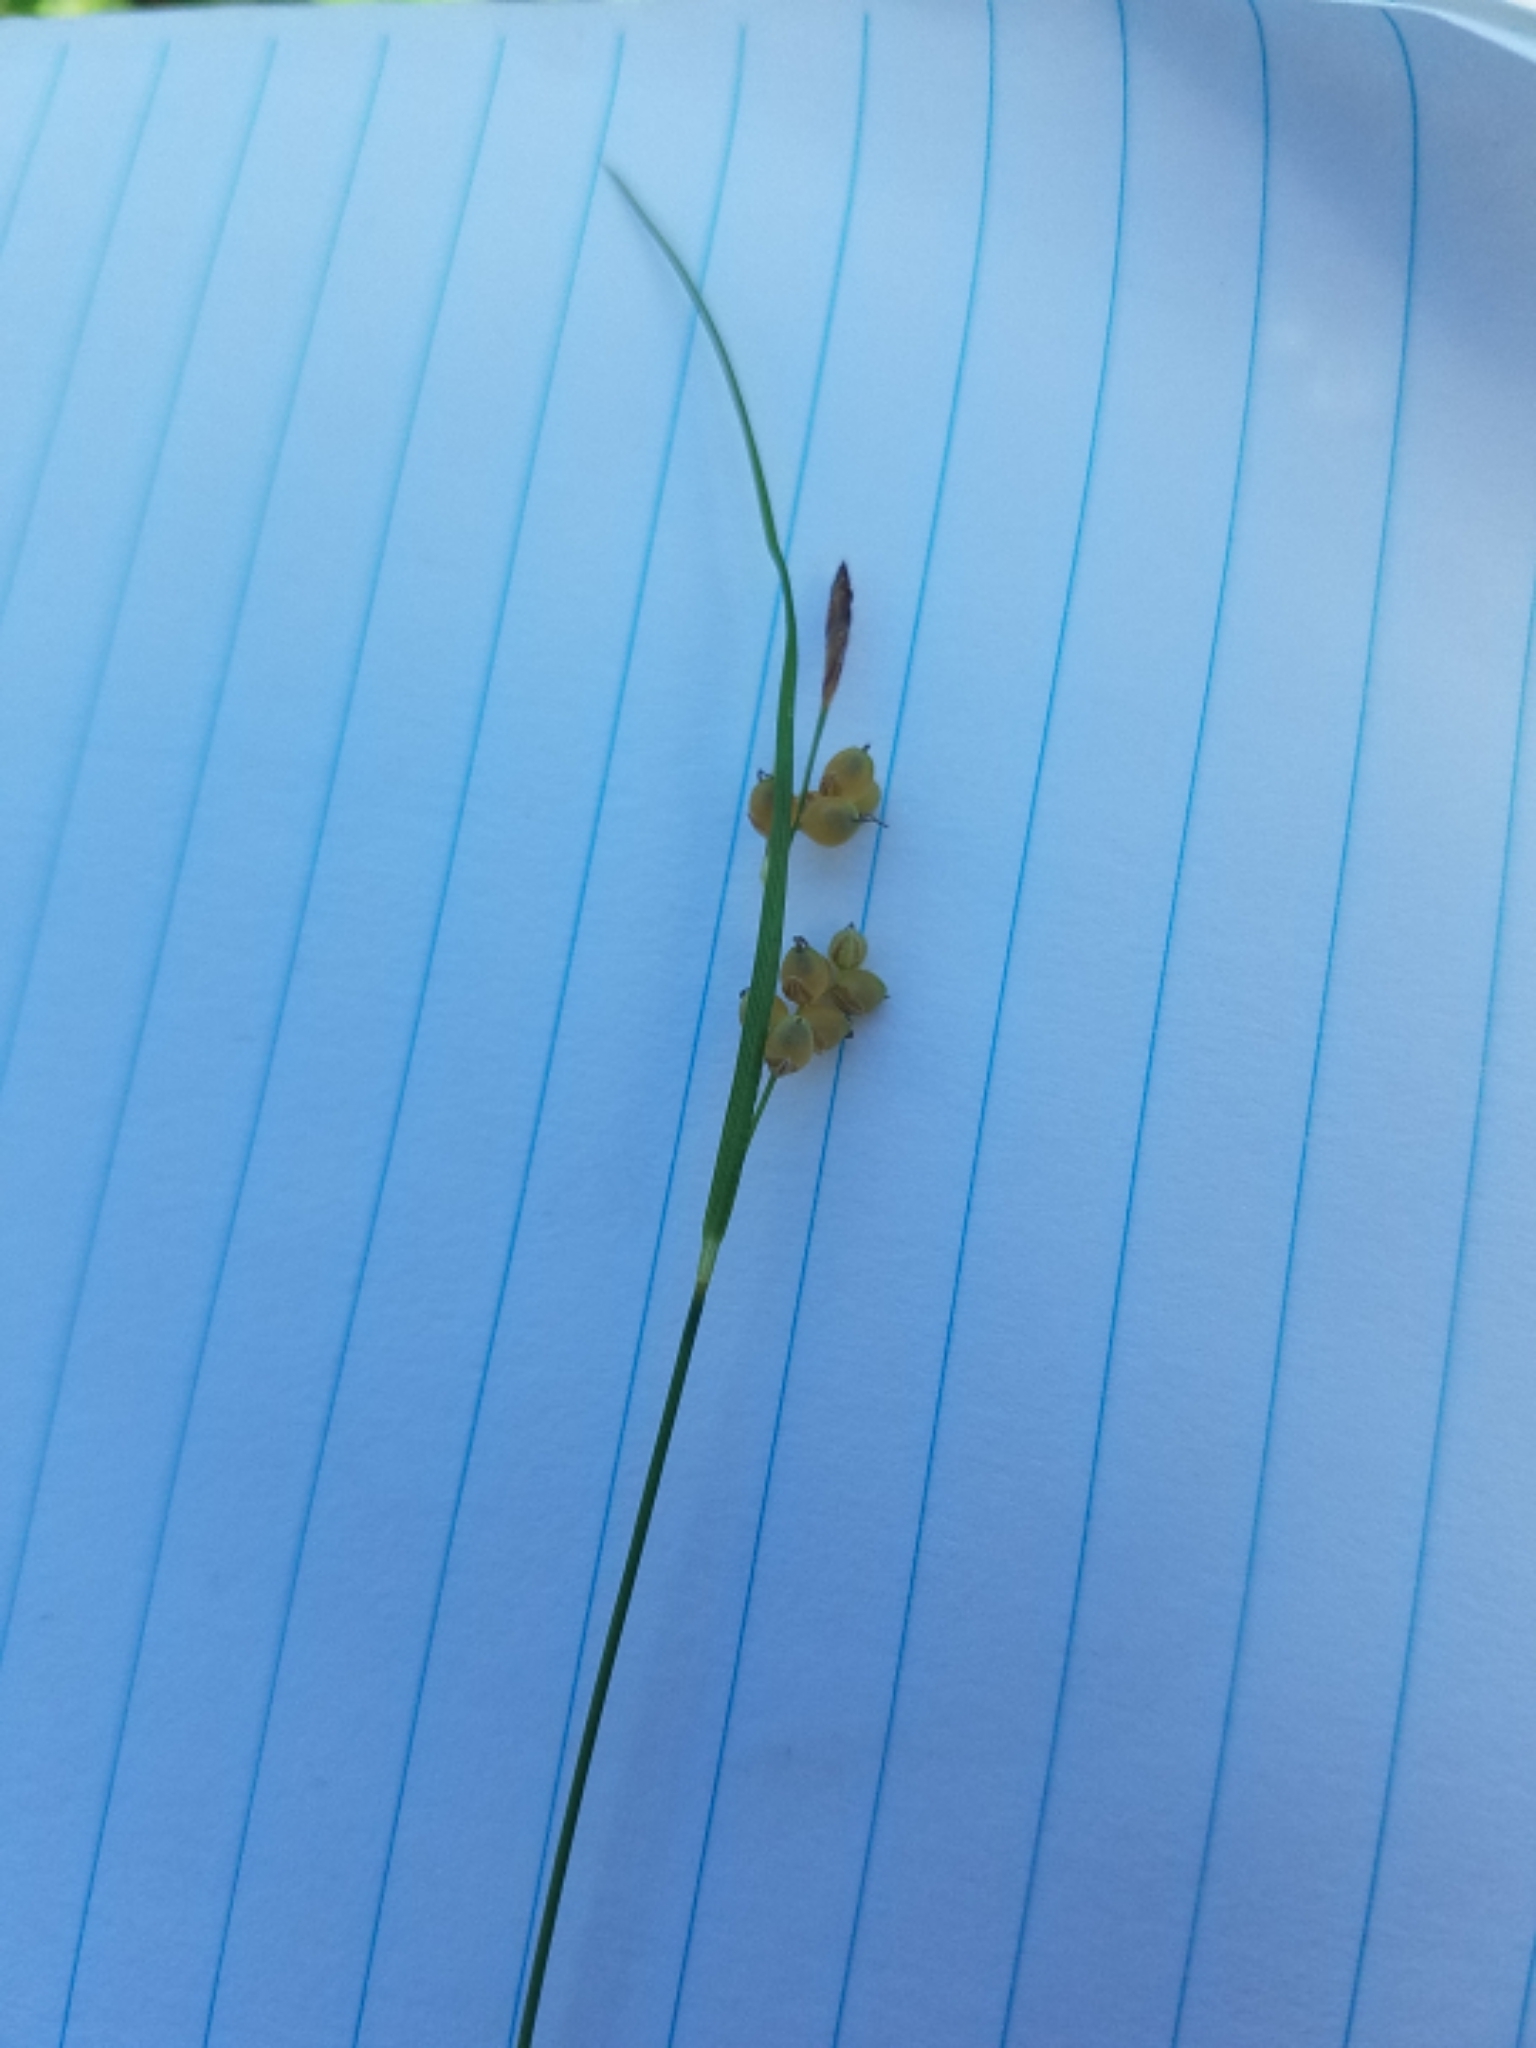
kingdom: Plantae
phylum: Tracheophyta
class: Liliopsida
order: Poales
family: Cyperaceae
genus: Carex
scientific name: Carex aurea
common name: Golden sedge
